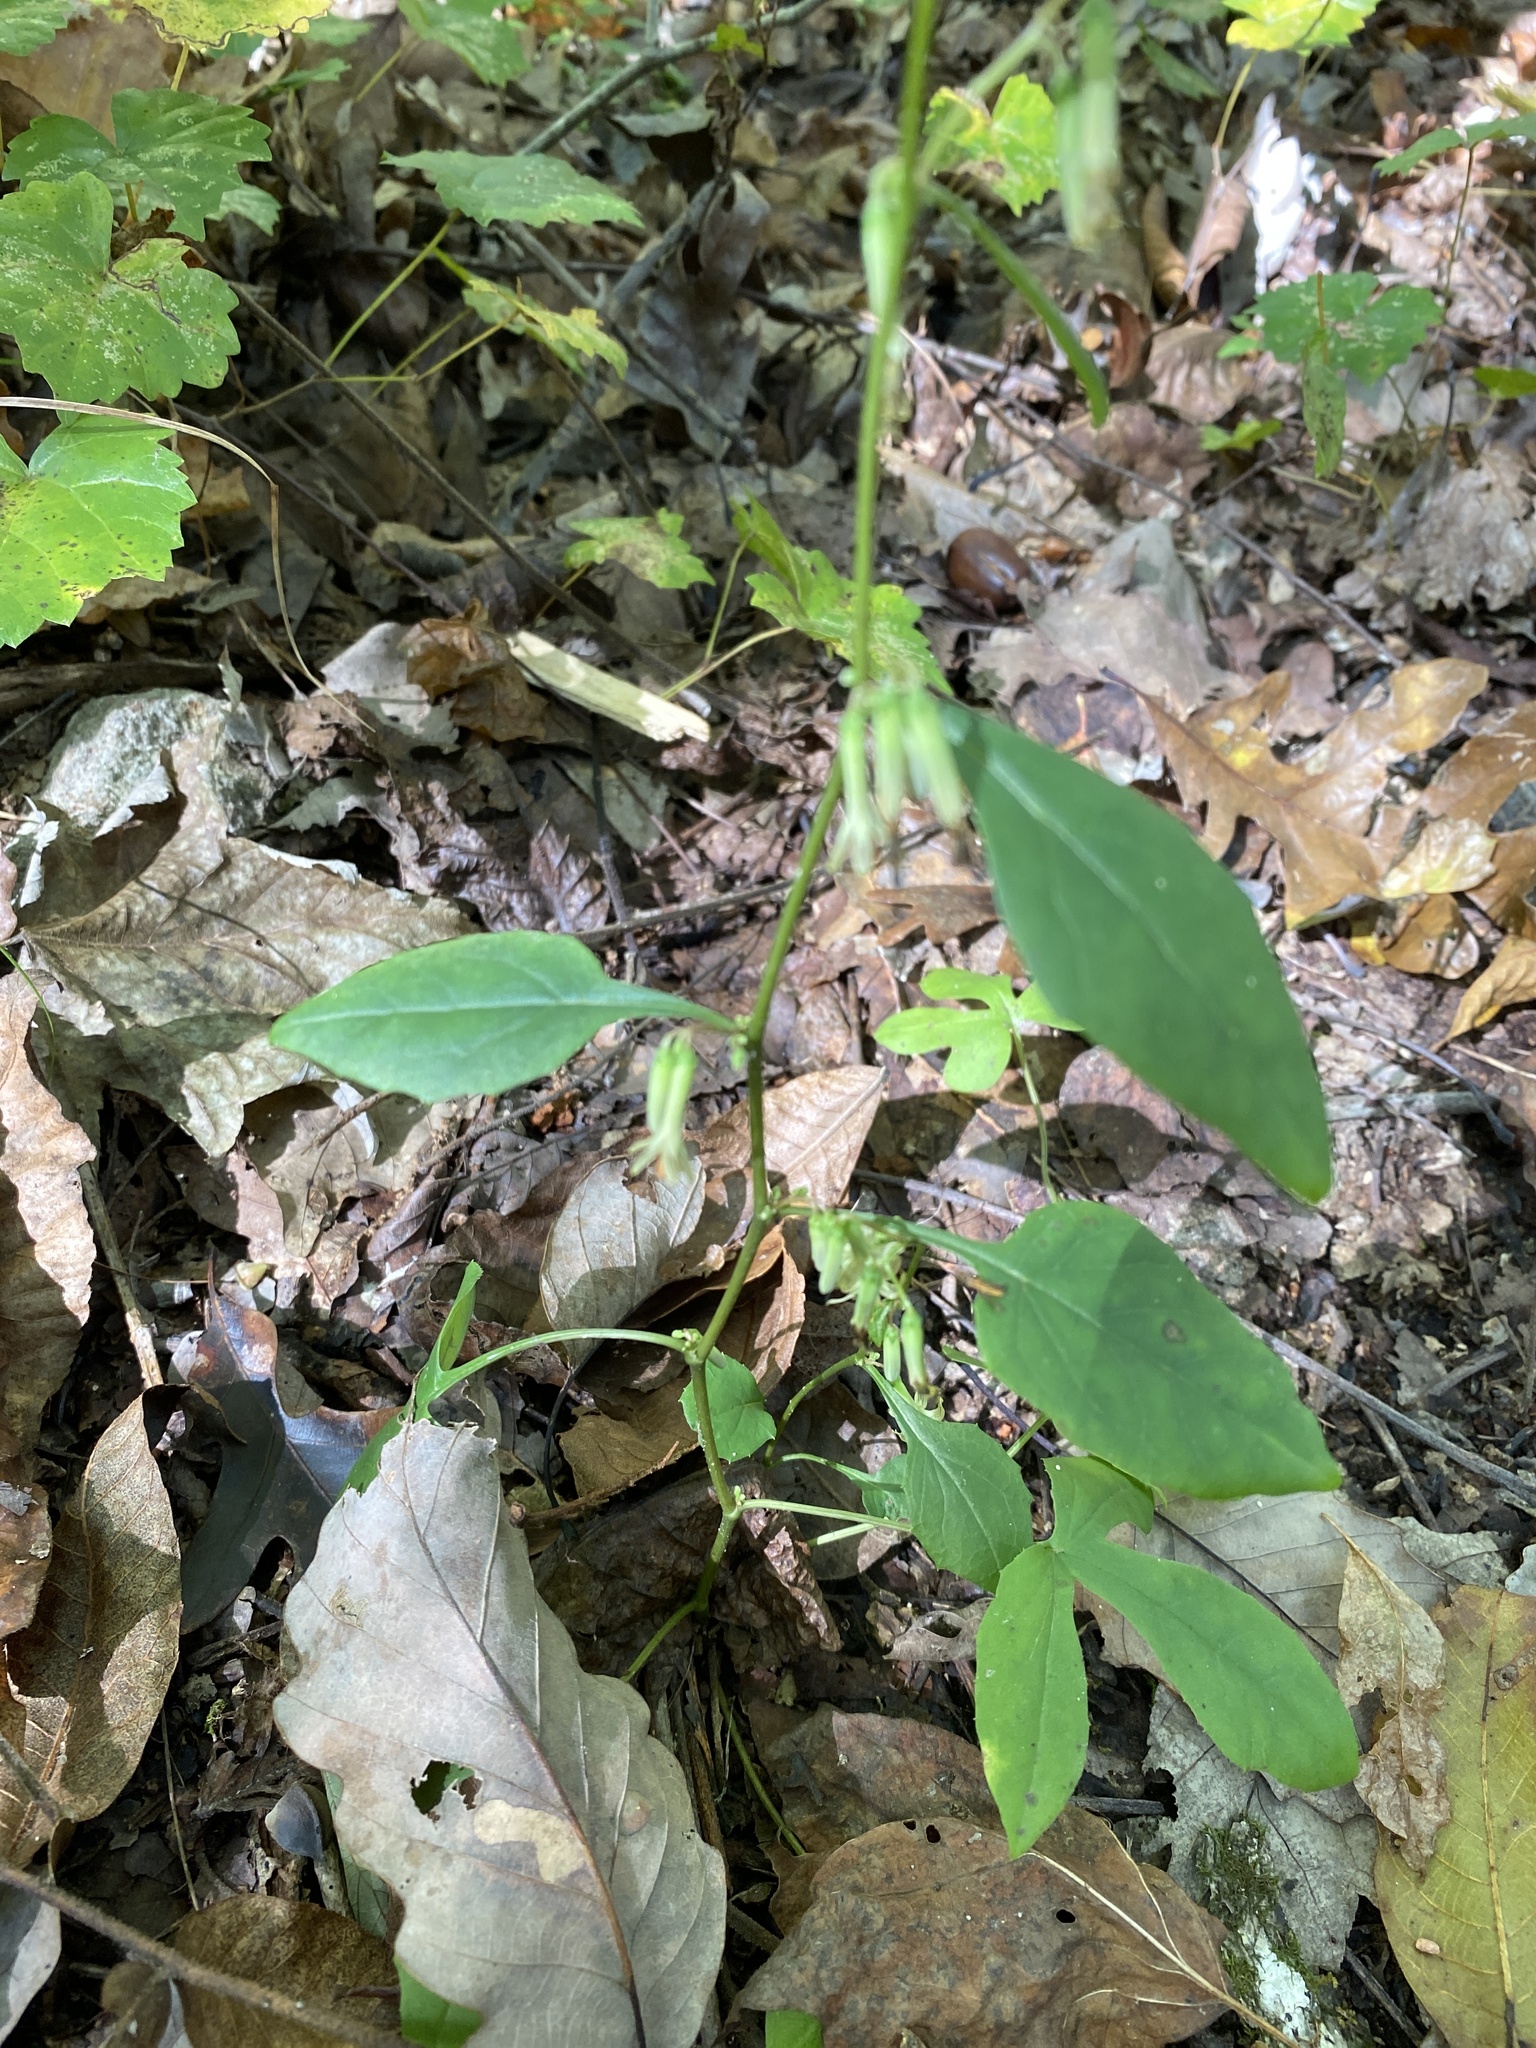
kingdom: Plantae
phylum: Tracheophyta
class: Magnoliopsida
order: Asterales
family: Asteraceae
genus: Nabalus
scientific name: Nabalus altissima
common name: Tall rattlesnakeroot
